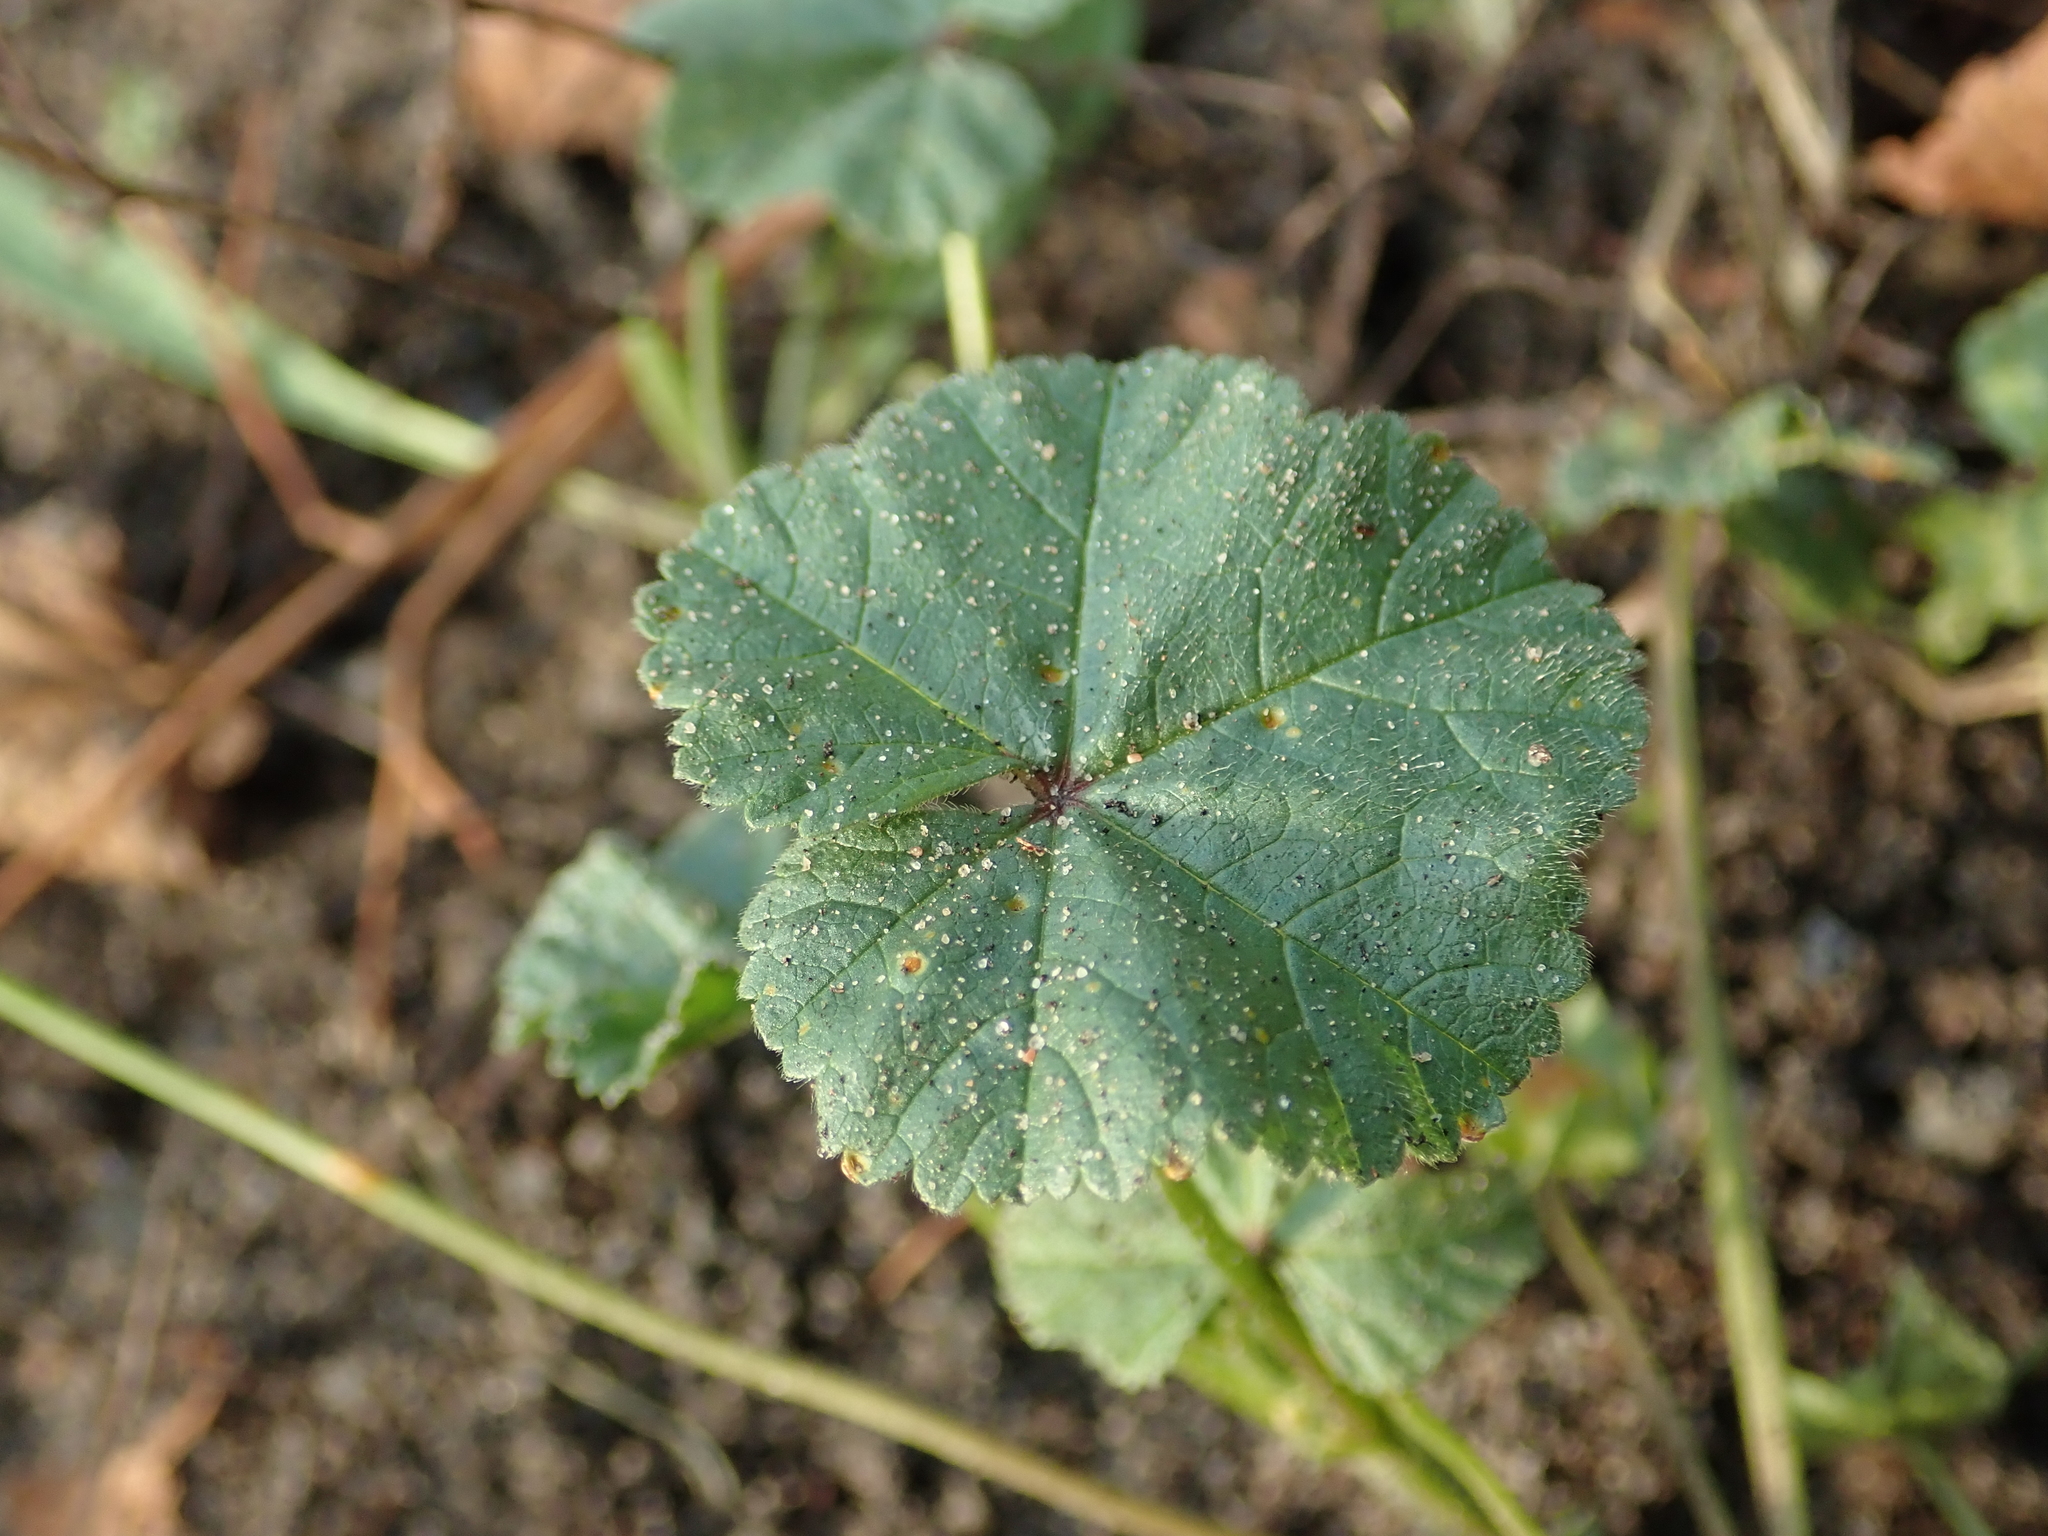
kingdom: Plantae
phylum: Tracheophyta
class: Magnoliopsida
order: Malvales
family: Malvaceae
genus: Malva
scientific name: Malva neglecta
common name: Common mallow
